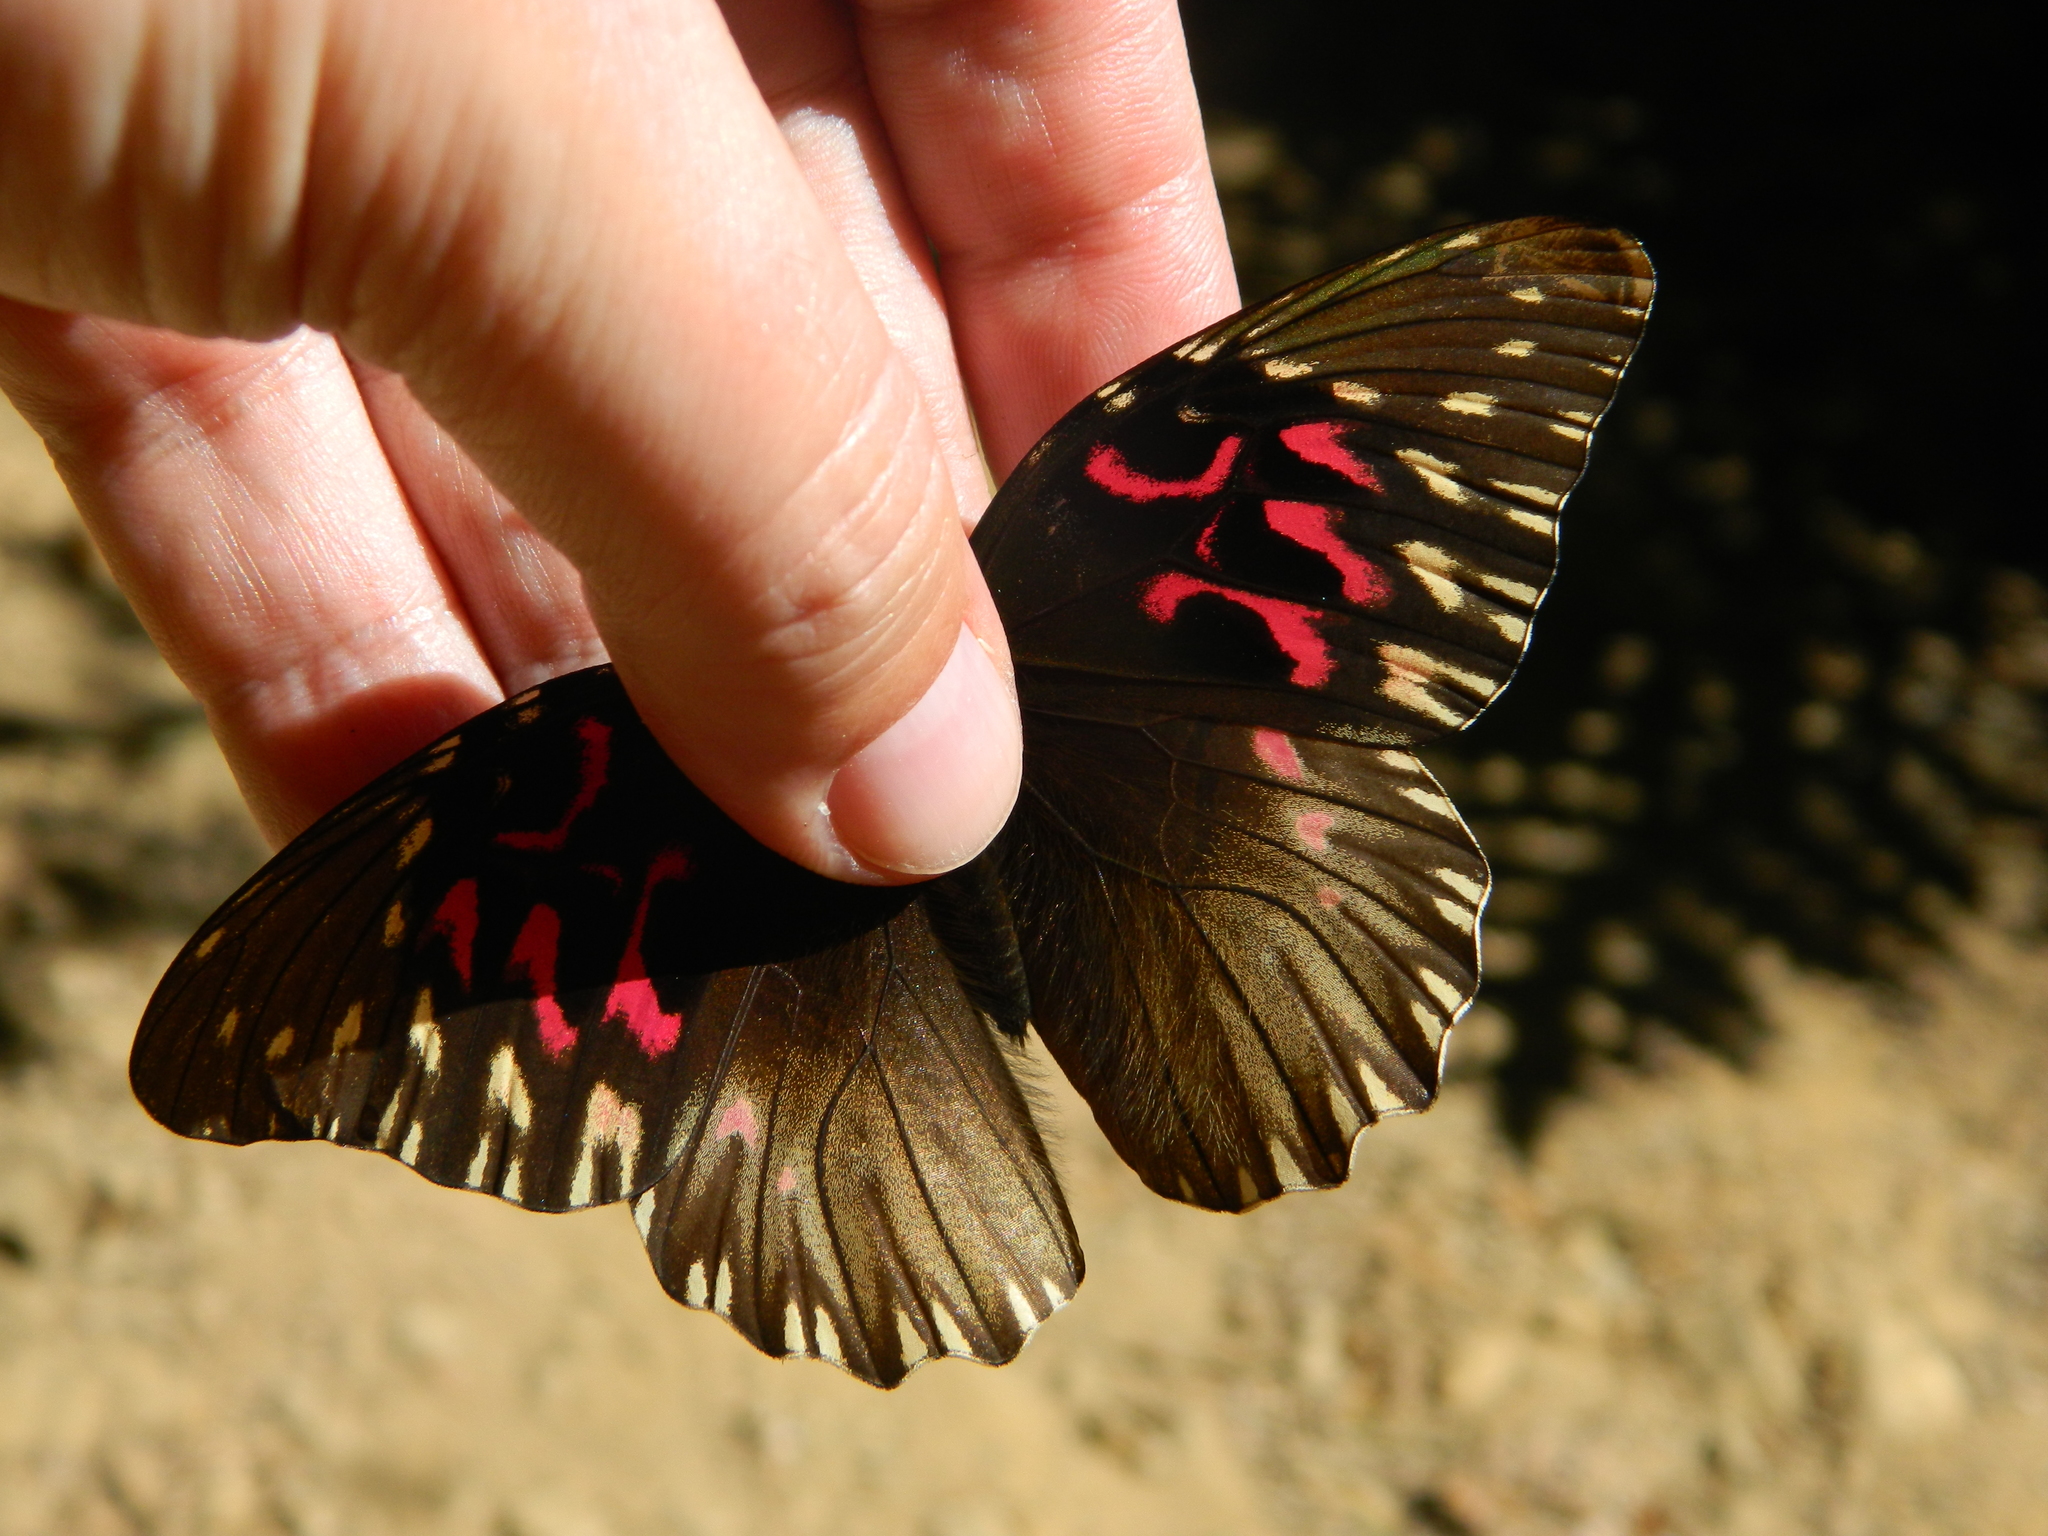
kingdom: Animalia
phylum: Arthropoda
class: Insecta
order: Lepidoptera
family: Nymphalidae
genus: Anetia
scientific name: Anetia thirza
